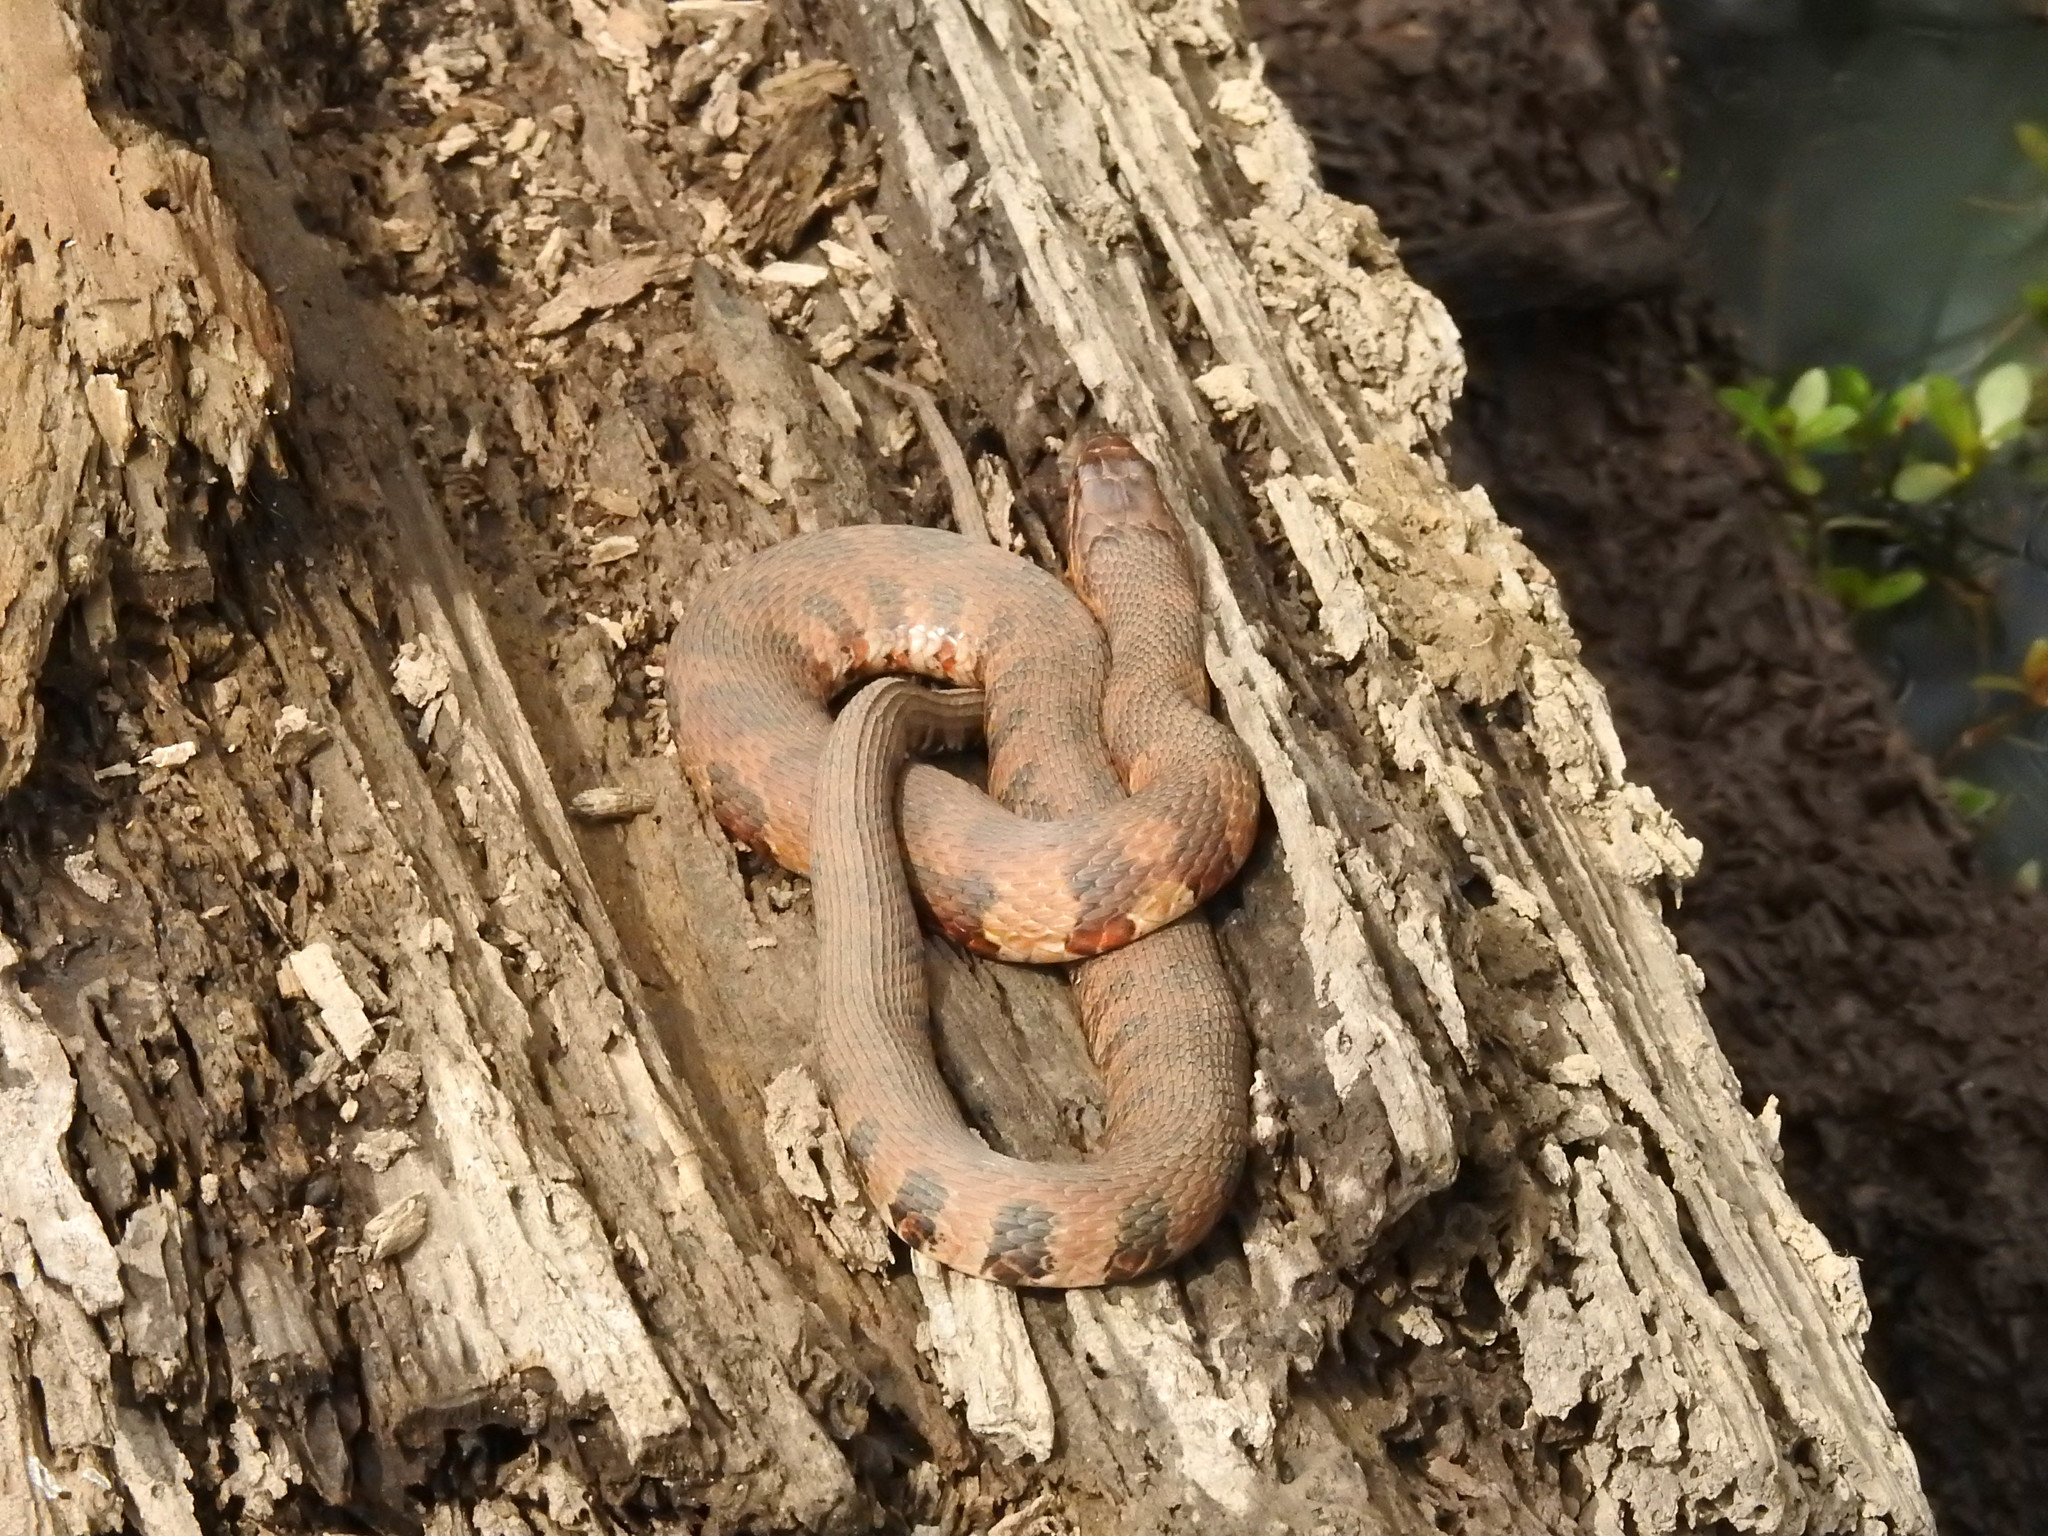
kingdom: Animalia
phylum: Chordata
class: Squamata
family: Colubridae
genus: Nerodia
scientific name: Nerodia sipedon
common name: Northern water snake
